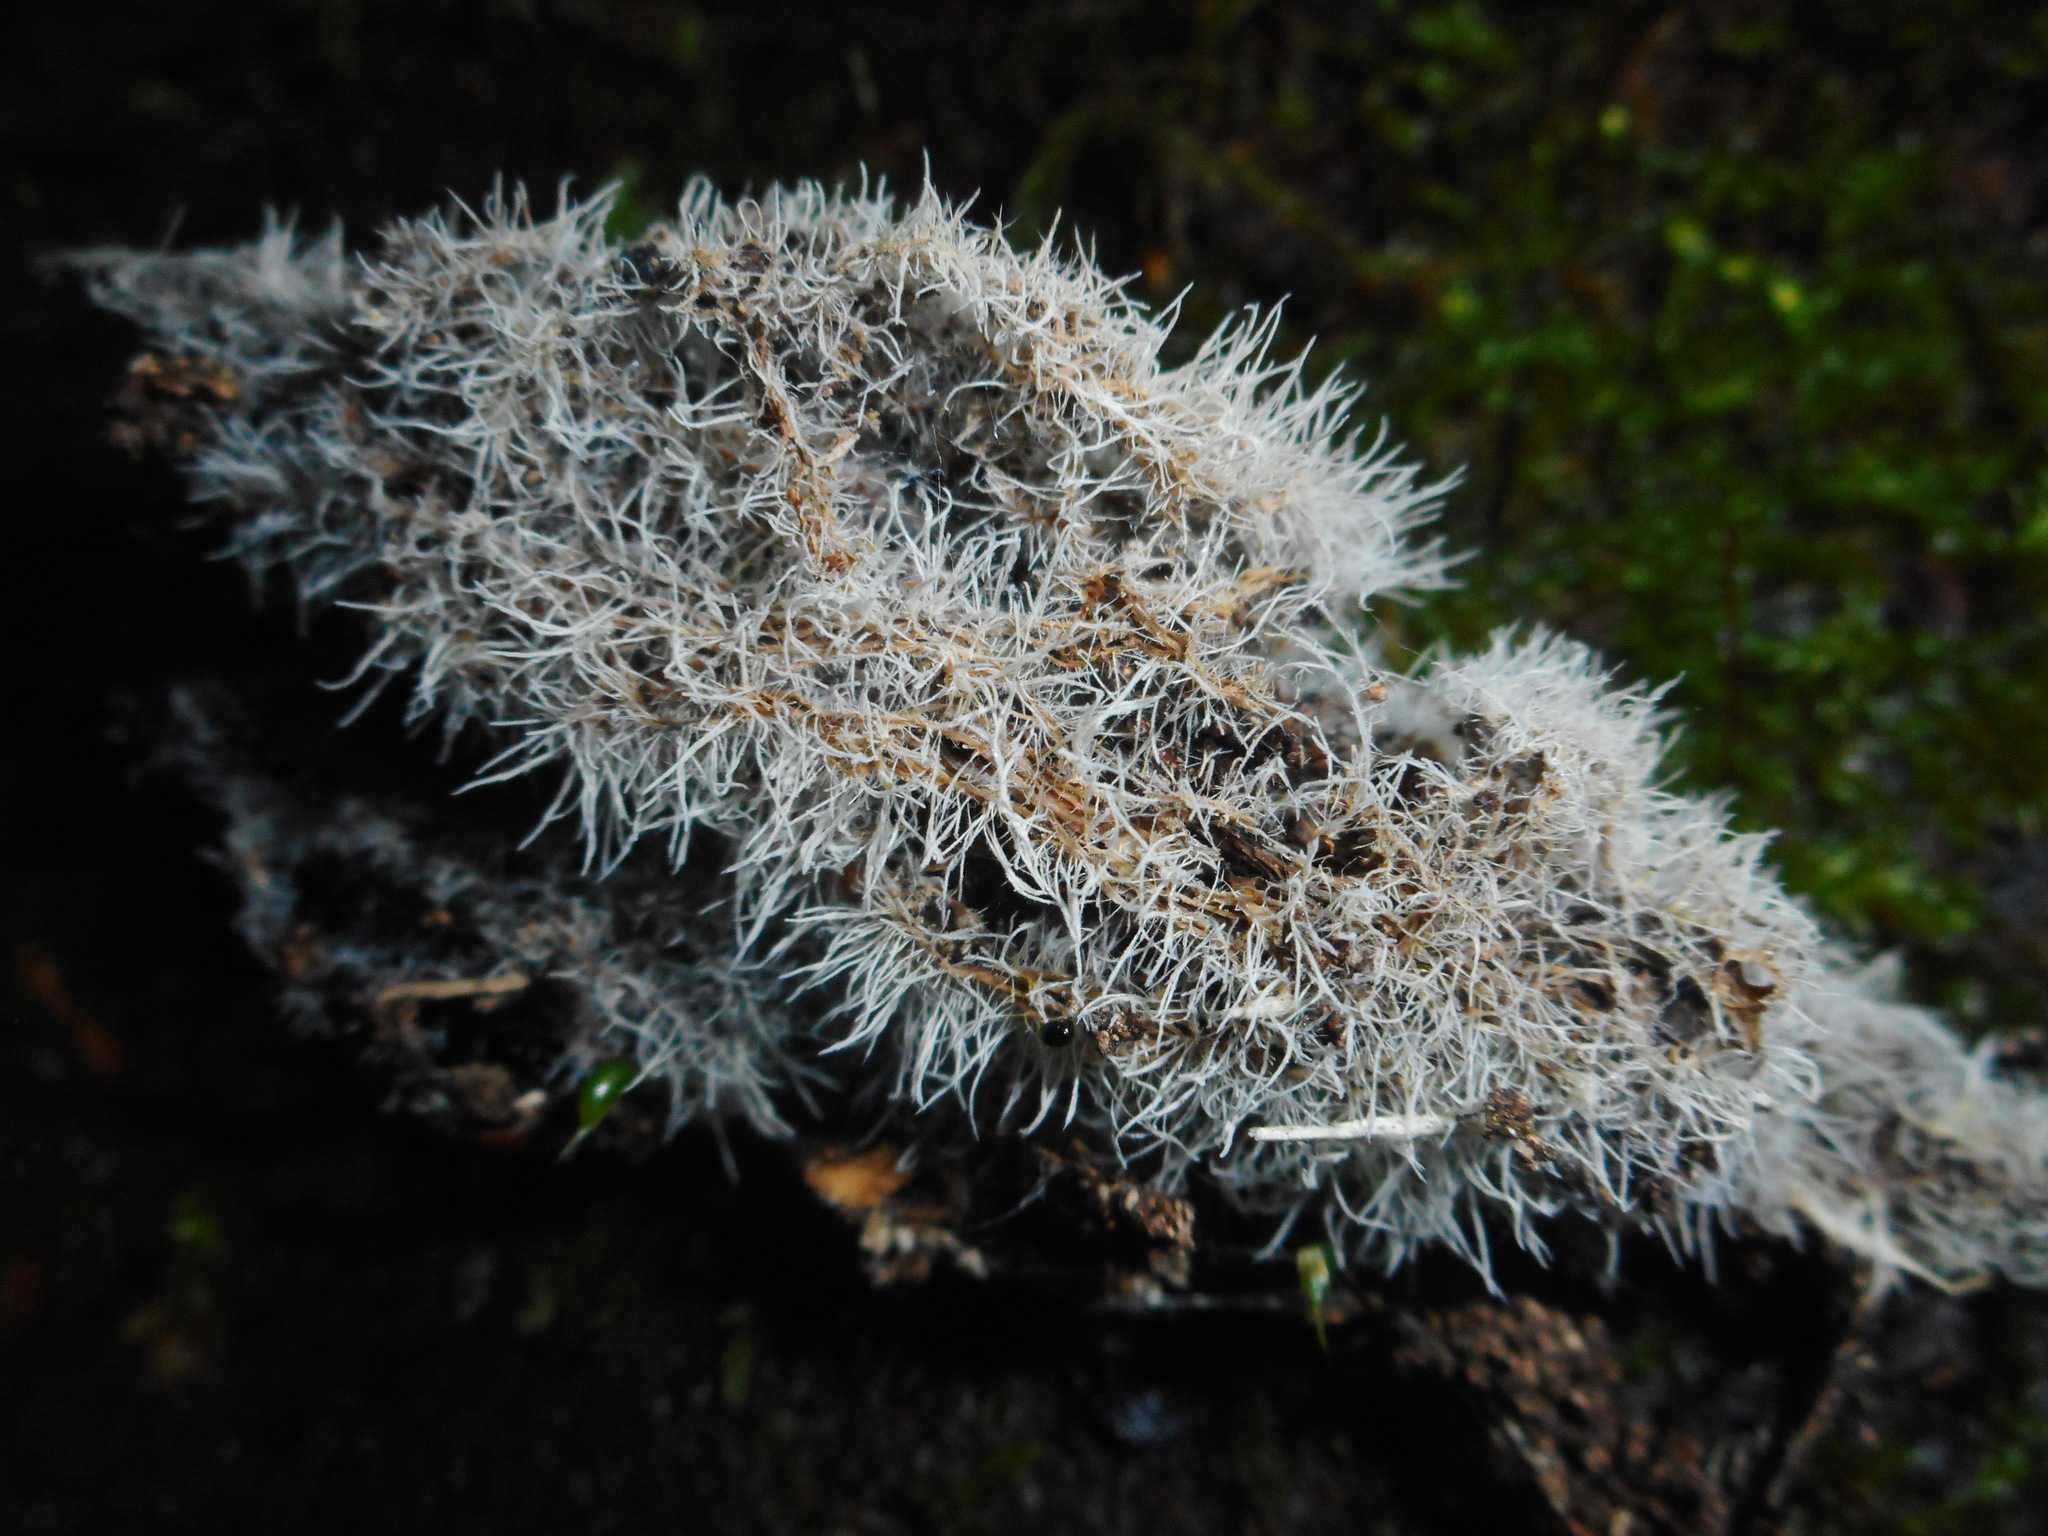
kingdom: Fungi
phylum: Ascomycota
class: Sordariomycetes
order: Hypocreales
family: Tilachlidiaceae
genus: Tilachlidium
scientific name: Tilachlidium brachiatum
